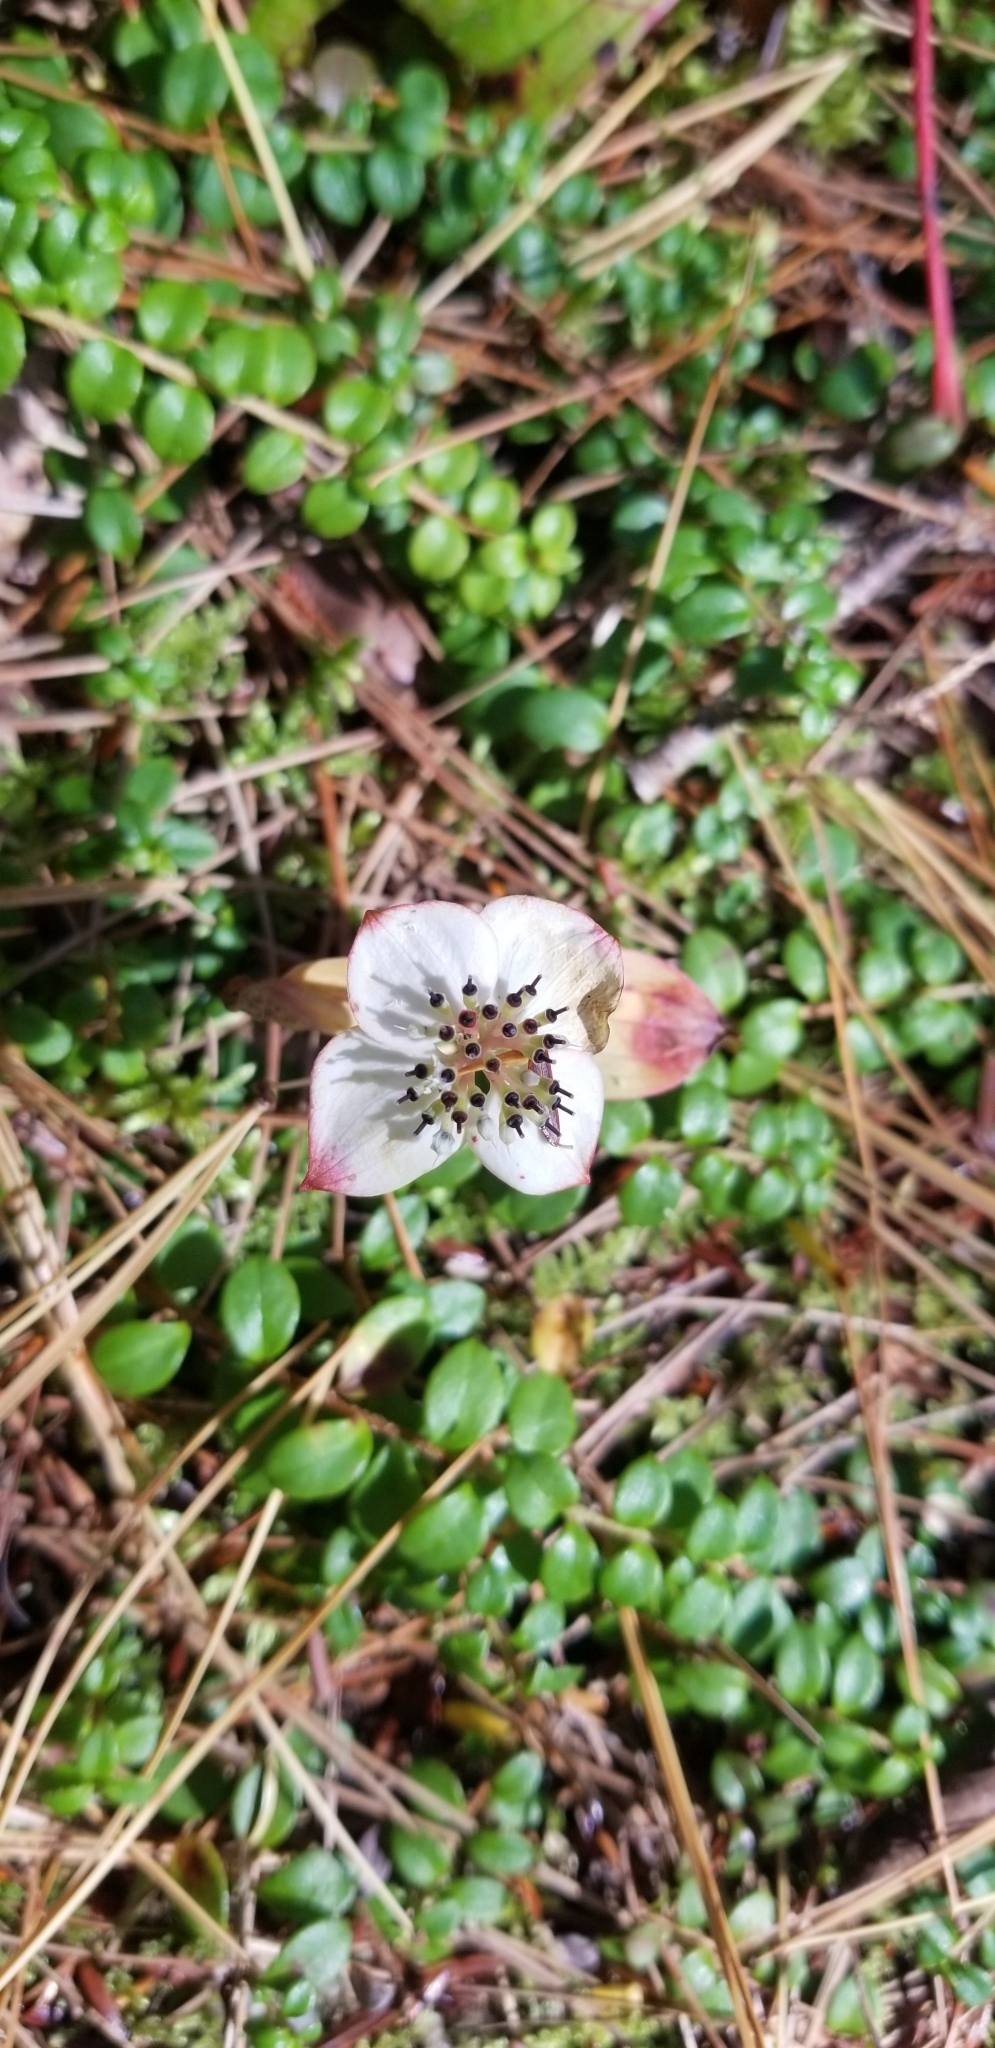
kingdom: Plantae
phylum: Tracheophyta
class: Magnoliopsida
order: Cornales
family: Cornaceae
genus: Cornus
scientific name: Cornus canadensis
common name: Creeping dogwood
